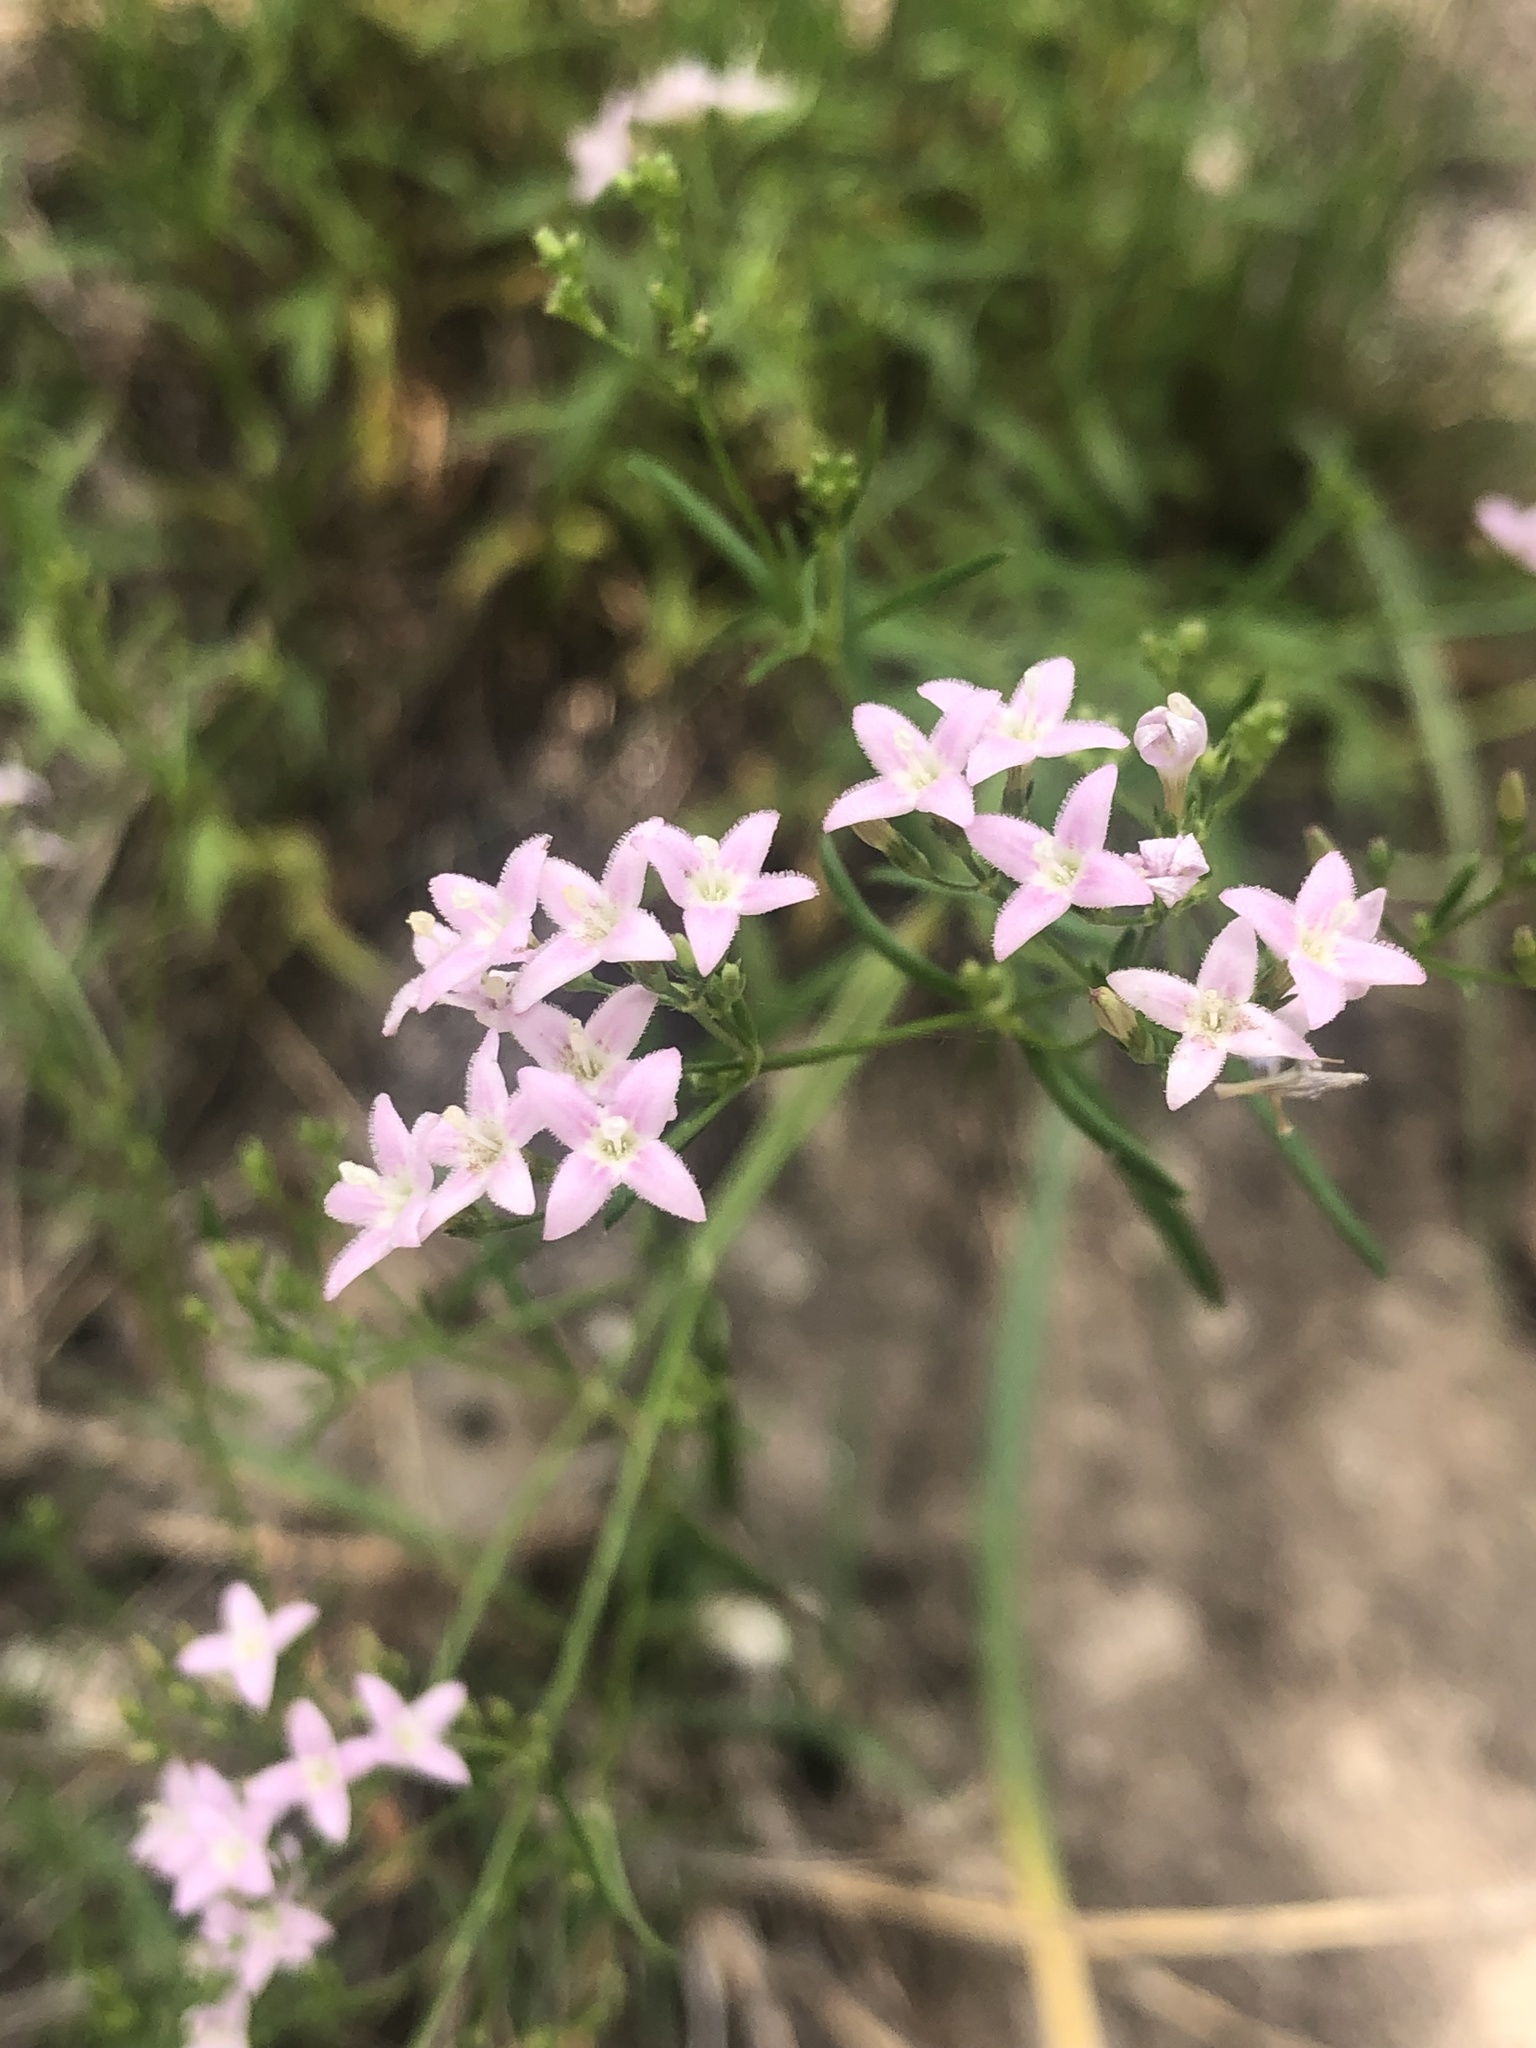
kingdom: Plantae
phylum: Tracheophyta
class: Magnoliopsida
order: Gentianales
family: Rubiaceae
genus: Stenaria
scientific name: Stenaria nigricans
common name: Diamondflowers
